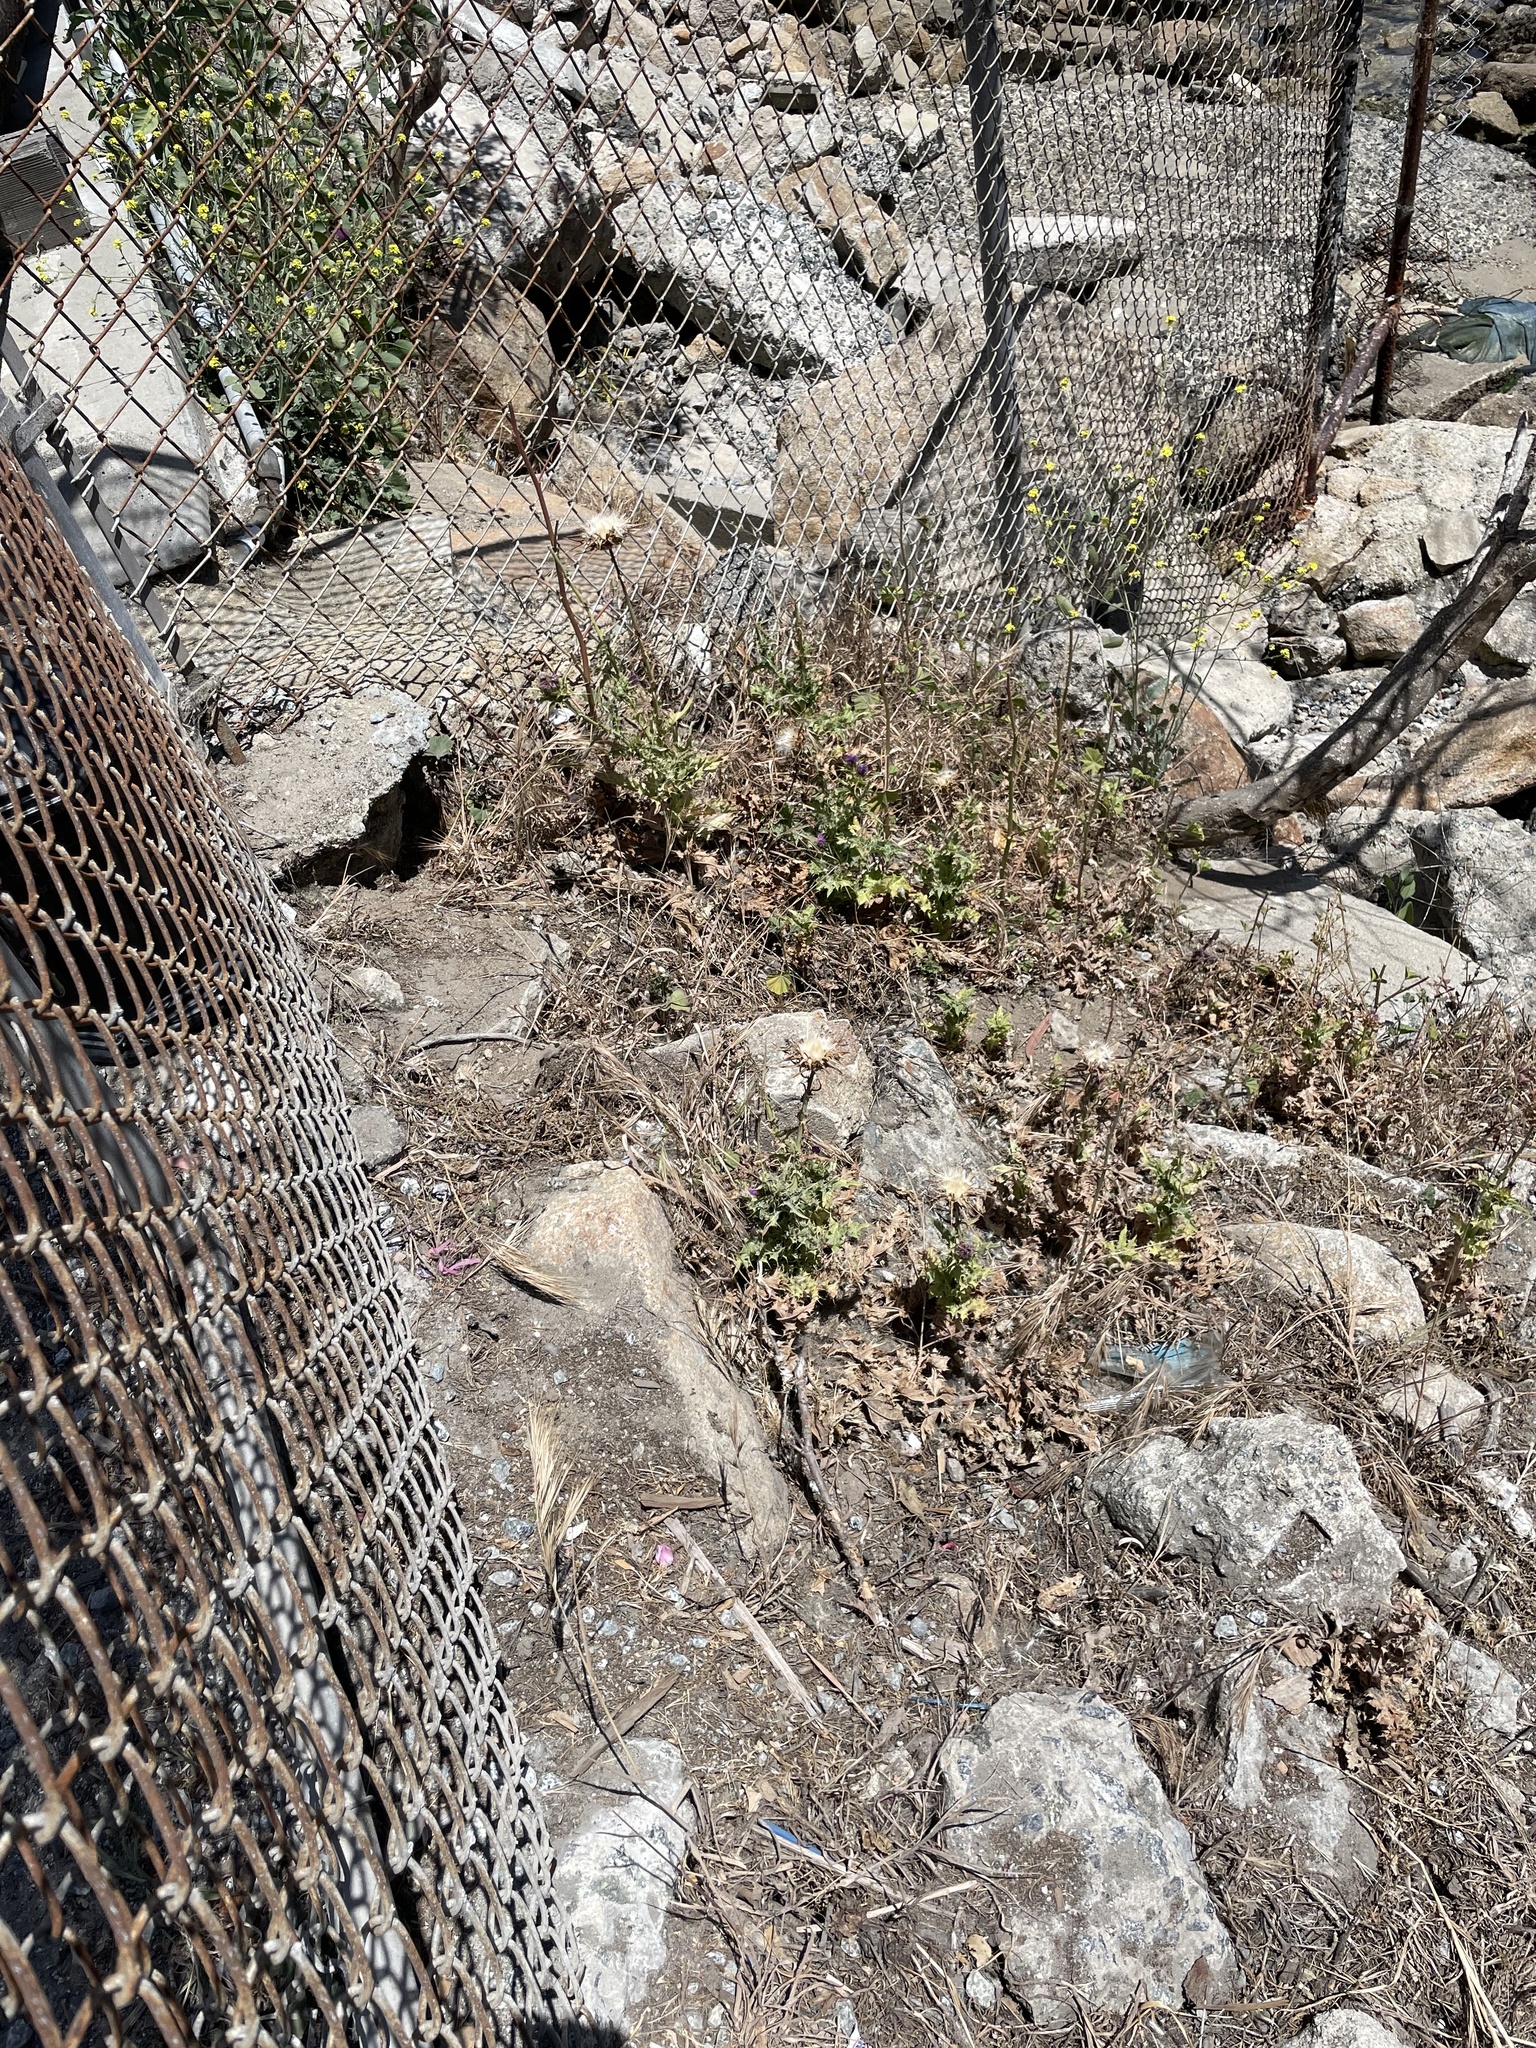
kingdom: Plantae
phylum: Tracheophyta
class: Magnoliopsida
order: Asterales
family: Asteraceae
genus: Silybum
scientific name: Silybum marianum
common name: Milk thistle
